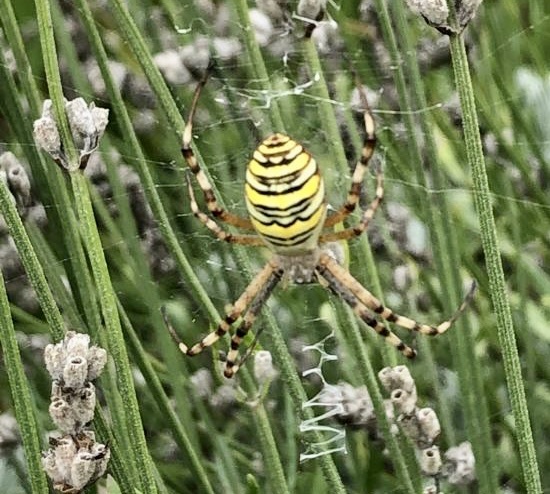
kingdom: Animalia
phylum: Arthropoda
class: Arachnida
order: Araneae
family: Araneidae
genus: Argiope
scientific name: Argiope bruennichi
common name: Wasp spider
